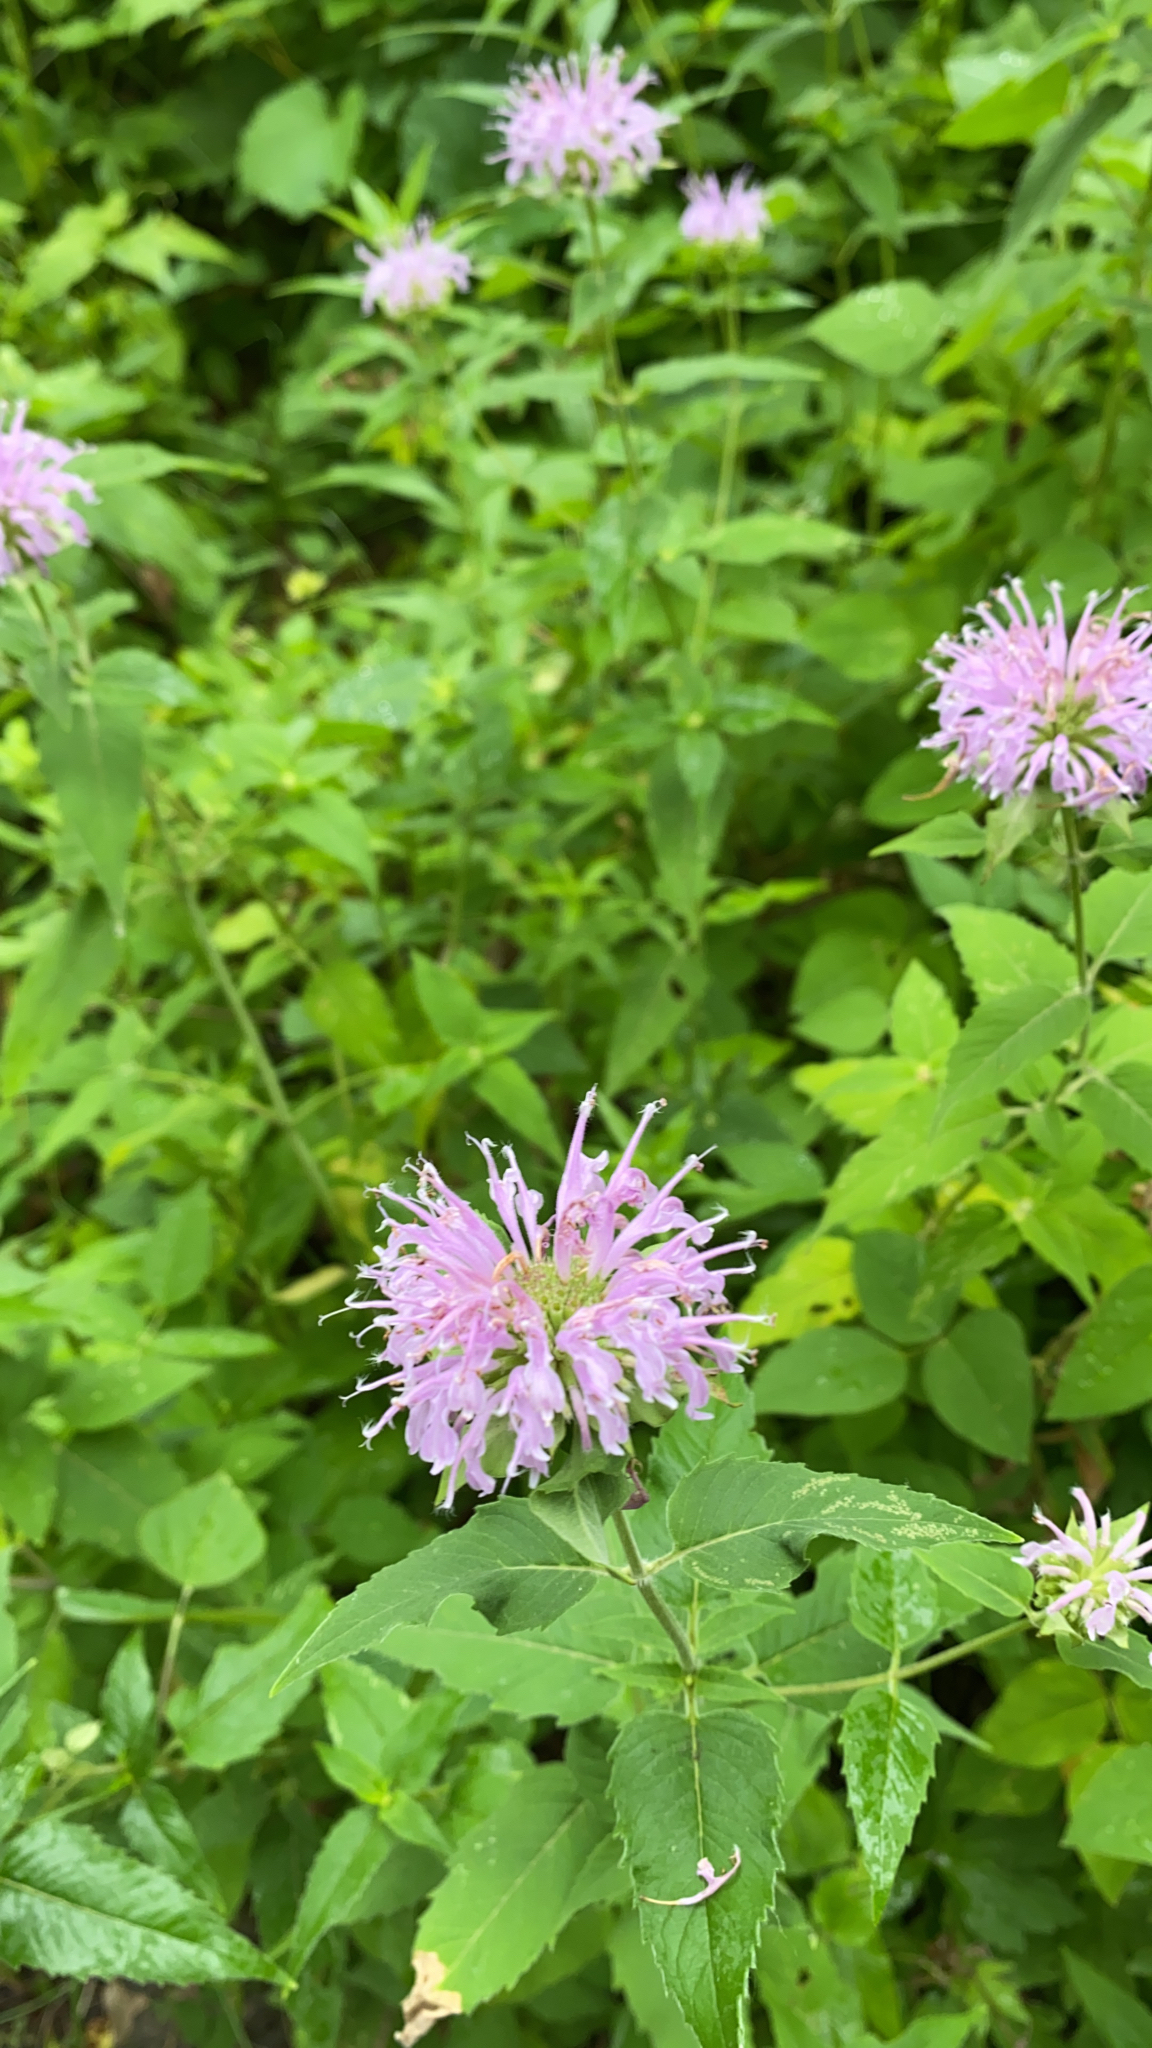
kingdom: Plantae
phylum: Tracheophyta
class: Magnoliopsida
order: Lamiales
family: Lamiaceae
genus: Monarda
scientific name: Monarda fistulosa
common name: Purple beebalm
